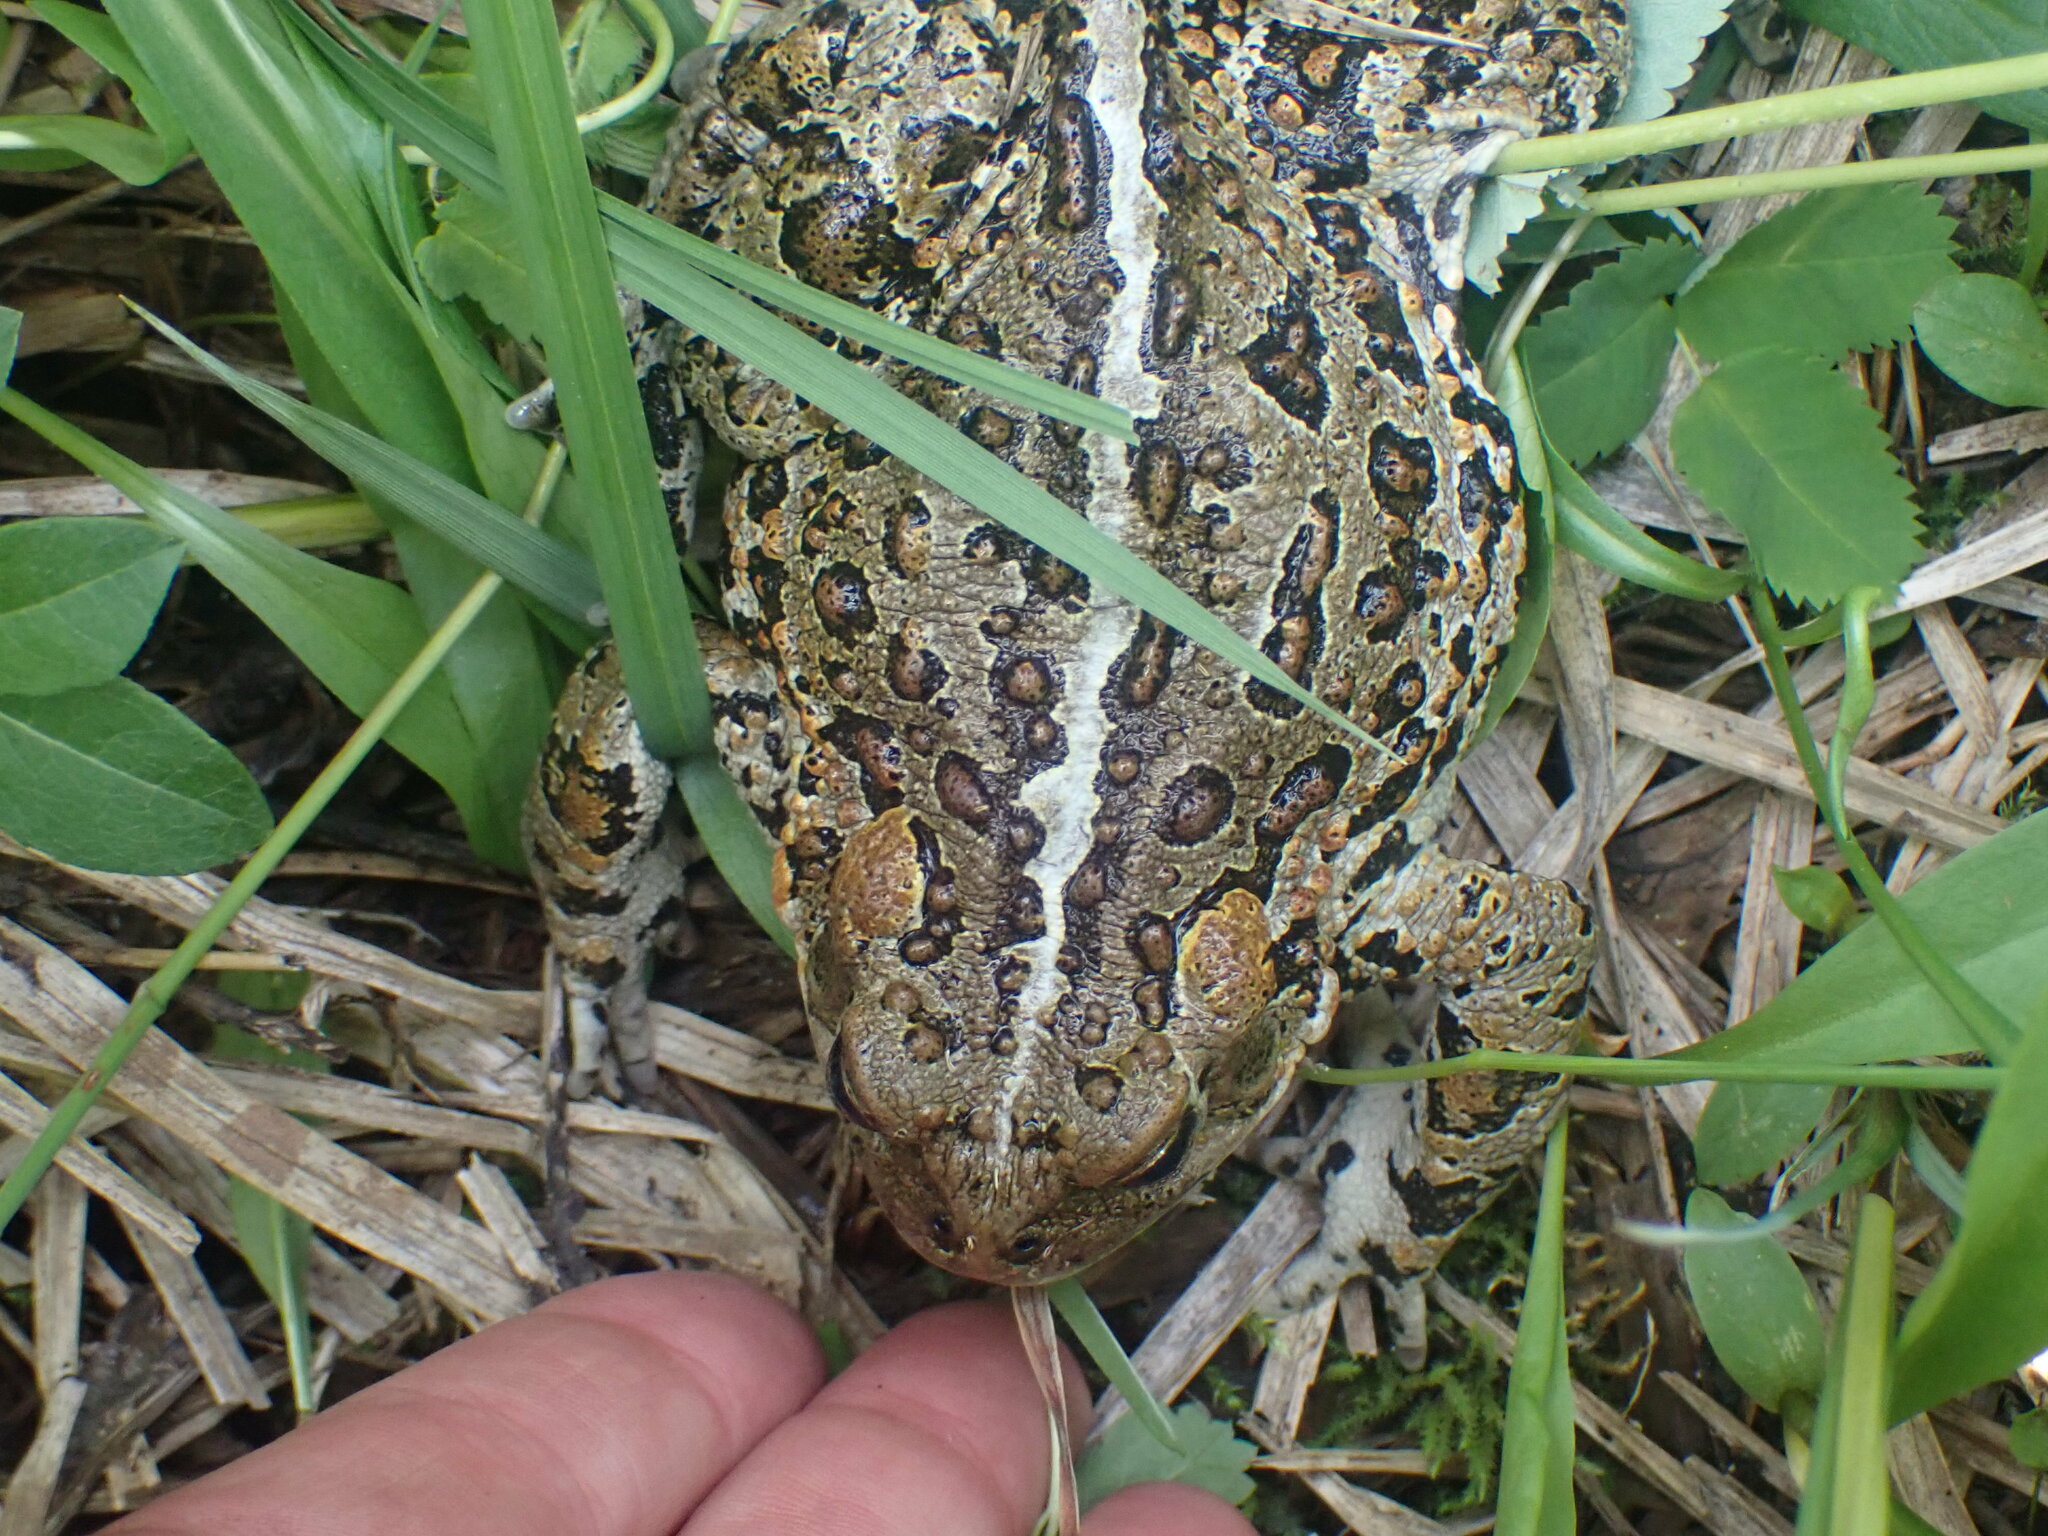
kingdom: Animalia
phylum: Chordata
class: Amphibia
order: Anura
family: Bufonidae
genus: Anaxyrus
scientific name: Anaxyrus boreas
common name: Western toad
